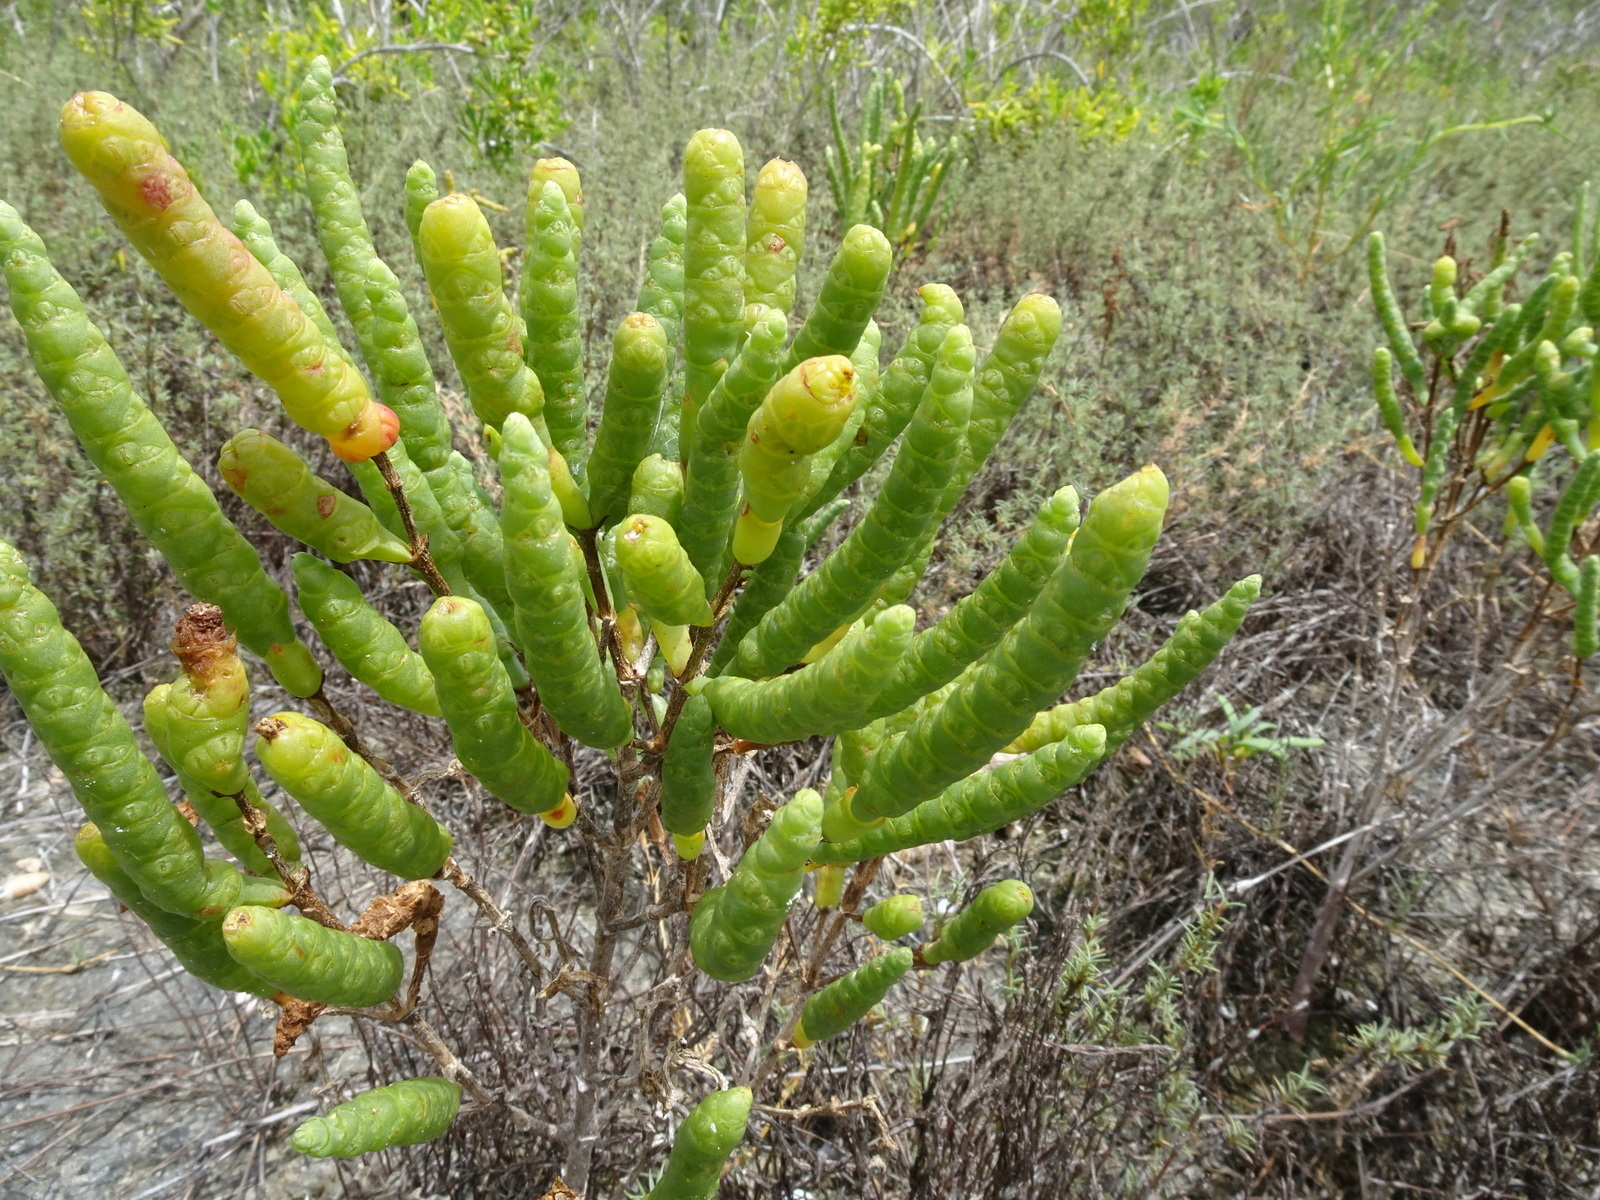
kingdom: Plantae
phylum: Tracheophyta
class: Magnoliopsida
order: Caryophyllales
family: Amaranthaceae
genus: Salicornia
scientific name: Salicornia bigelovii
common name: Dwarf glasswort
